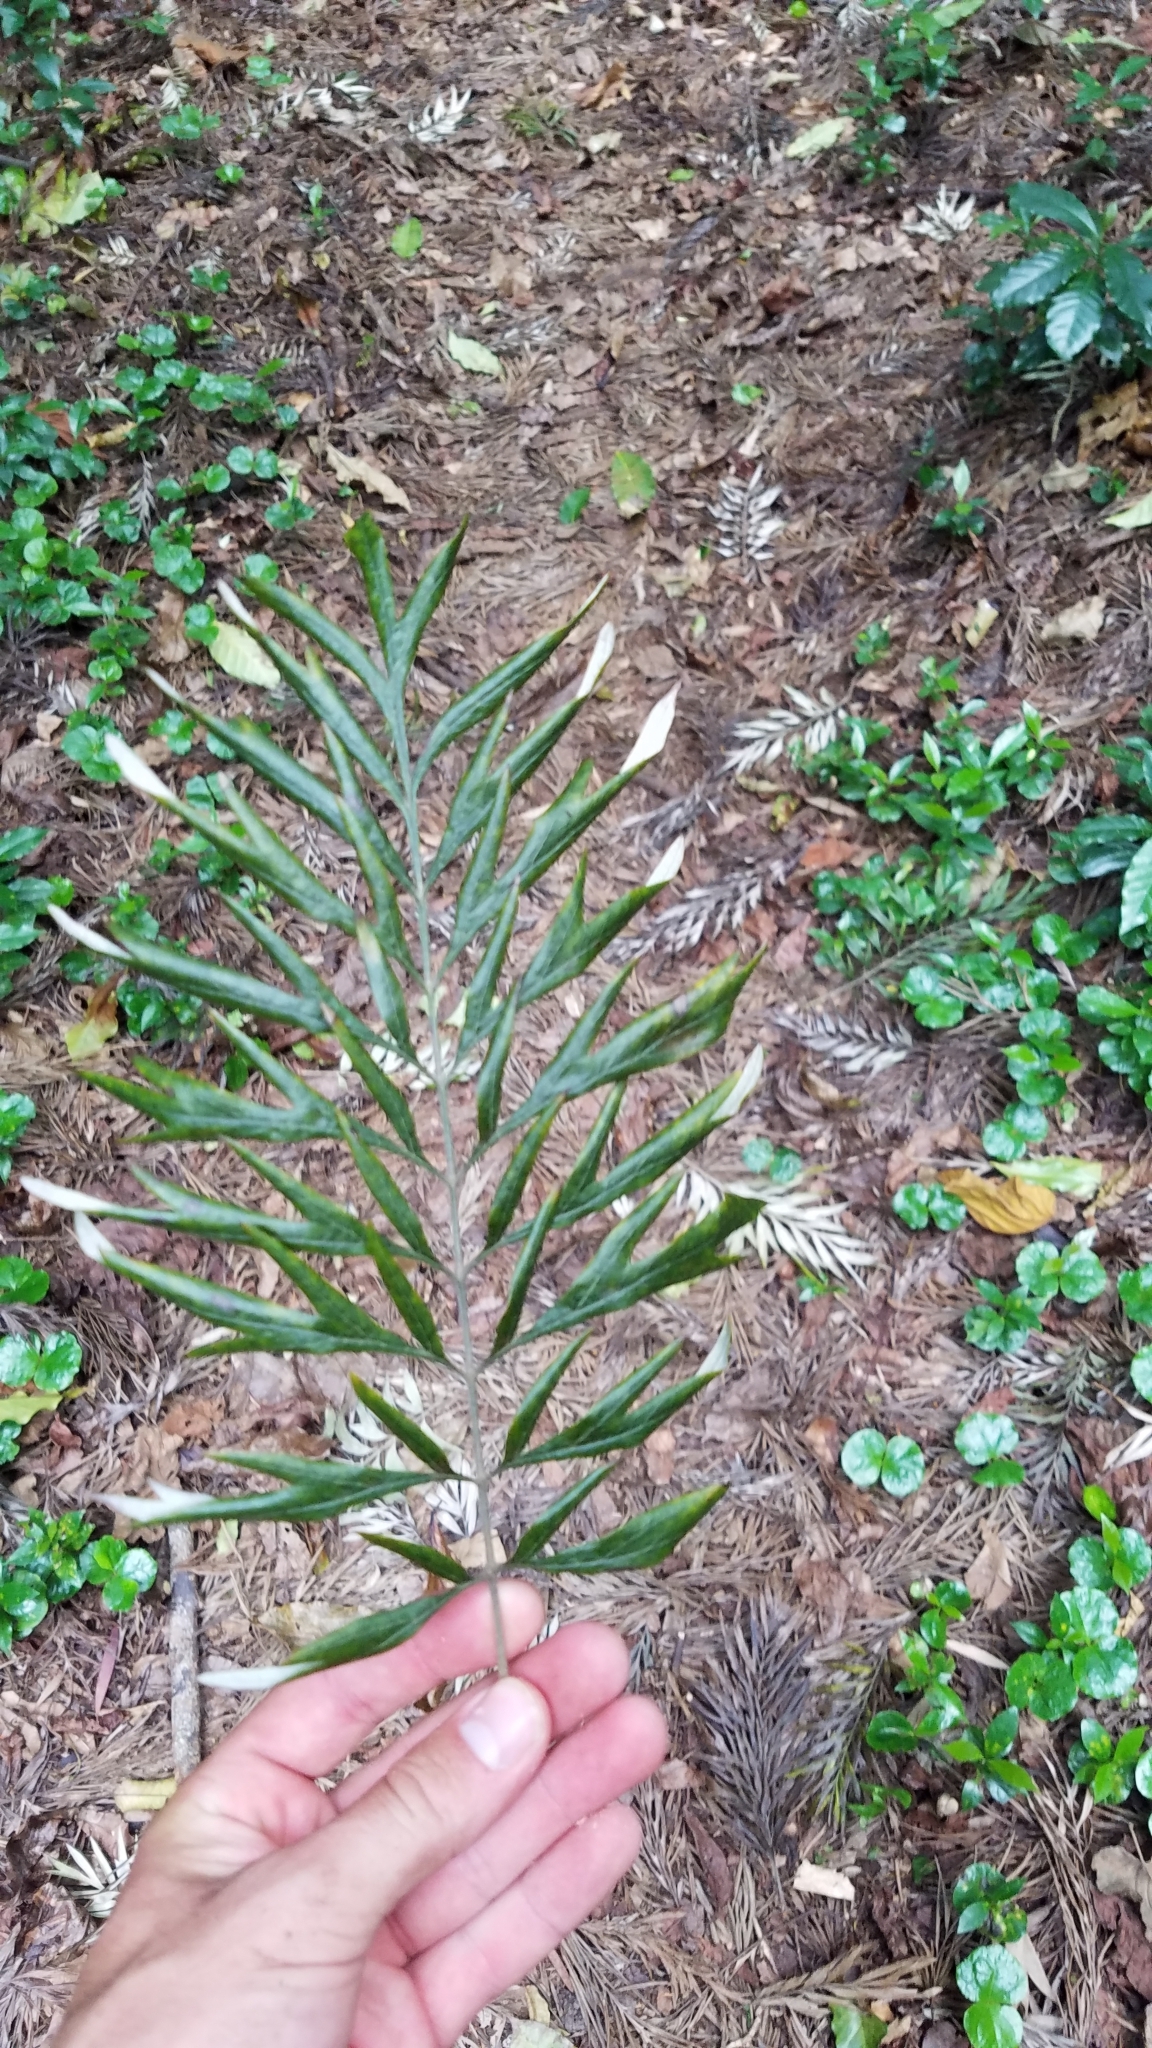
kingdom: Plantae
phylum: Tracheophyta
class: Magnoliopsida
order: Proteales
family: Proteaceae
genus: Grevillea
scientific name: Grevillea robusta
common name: Silkoak
